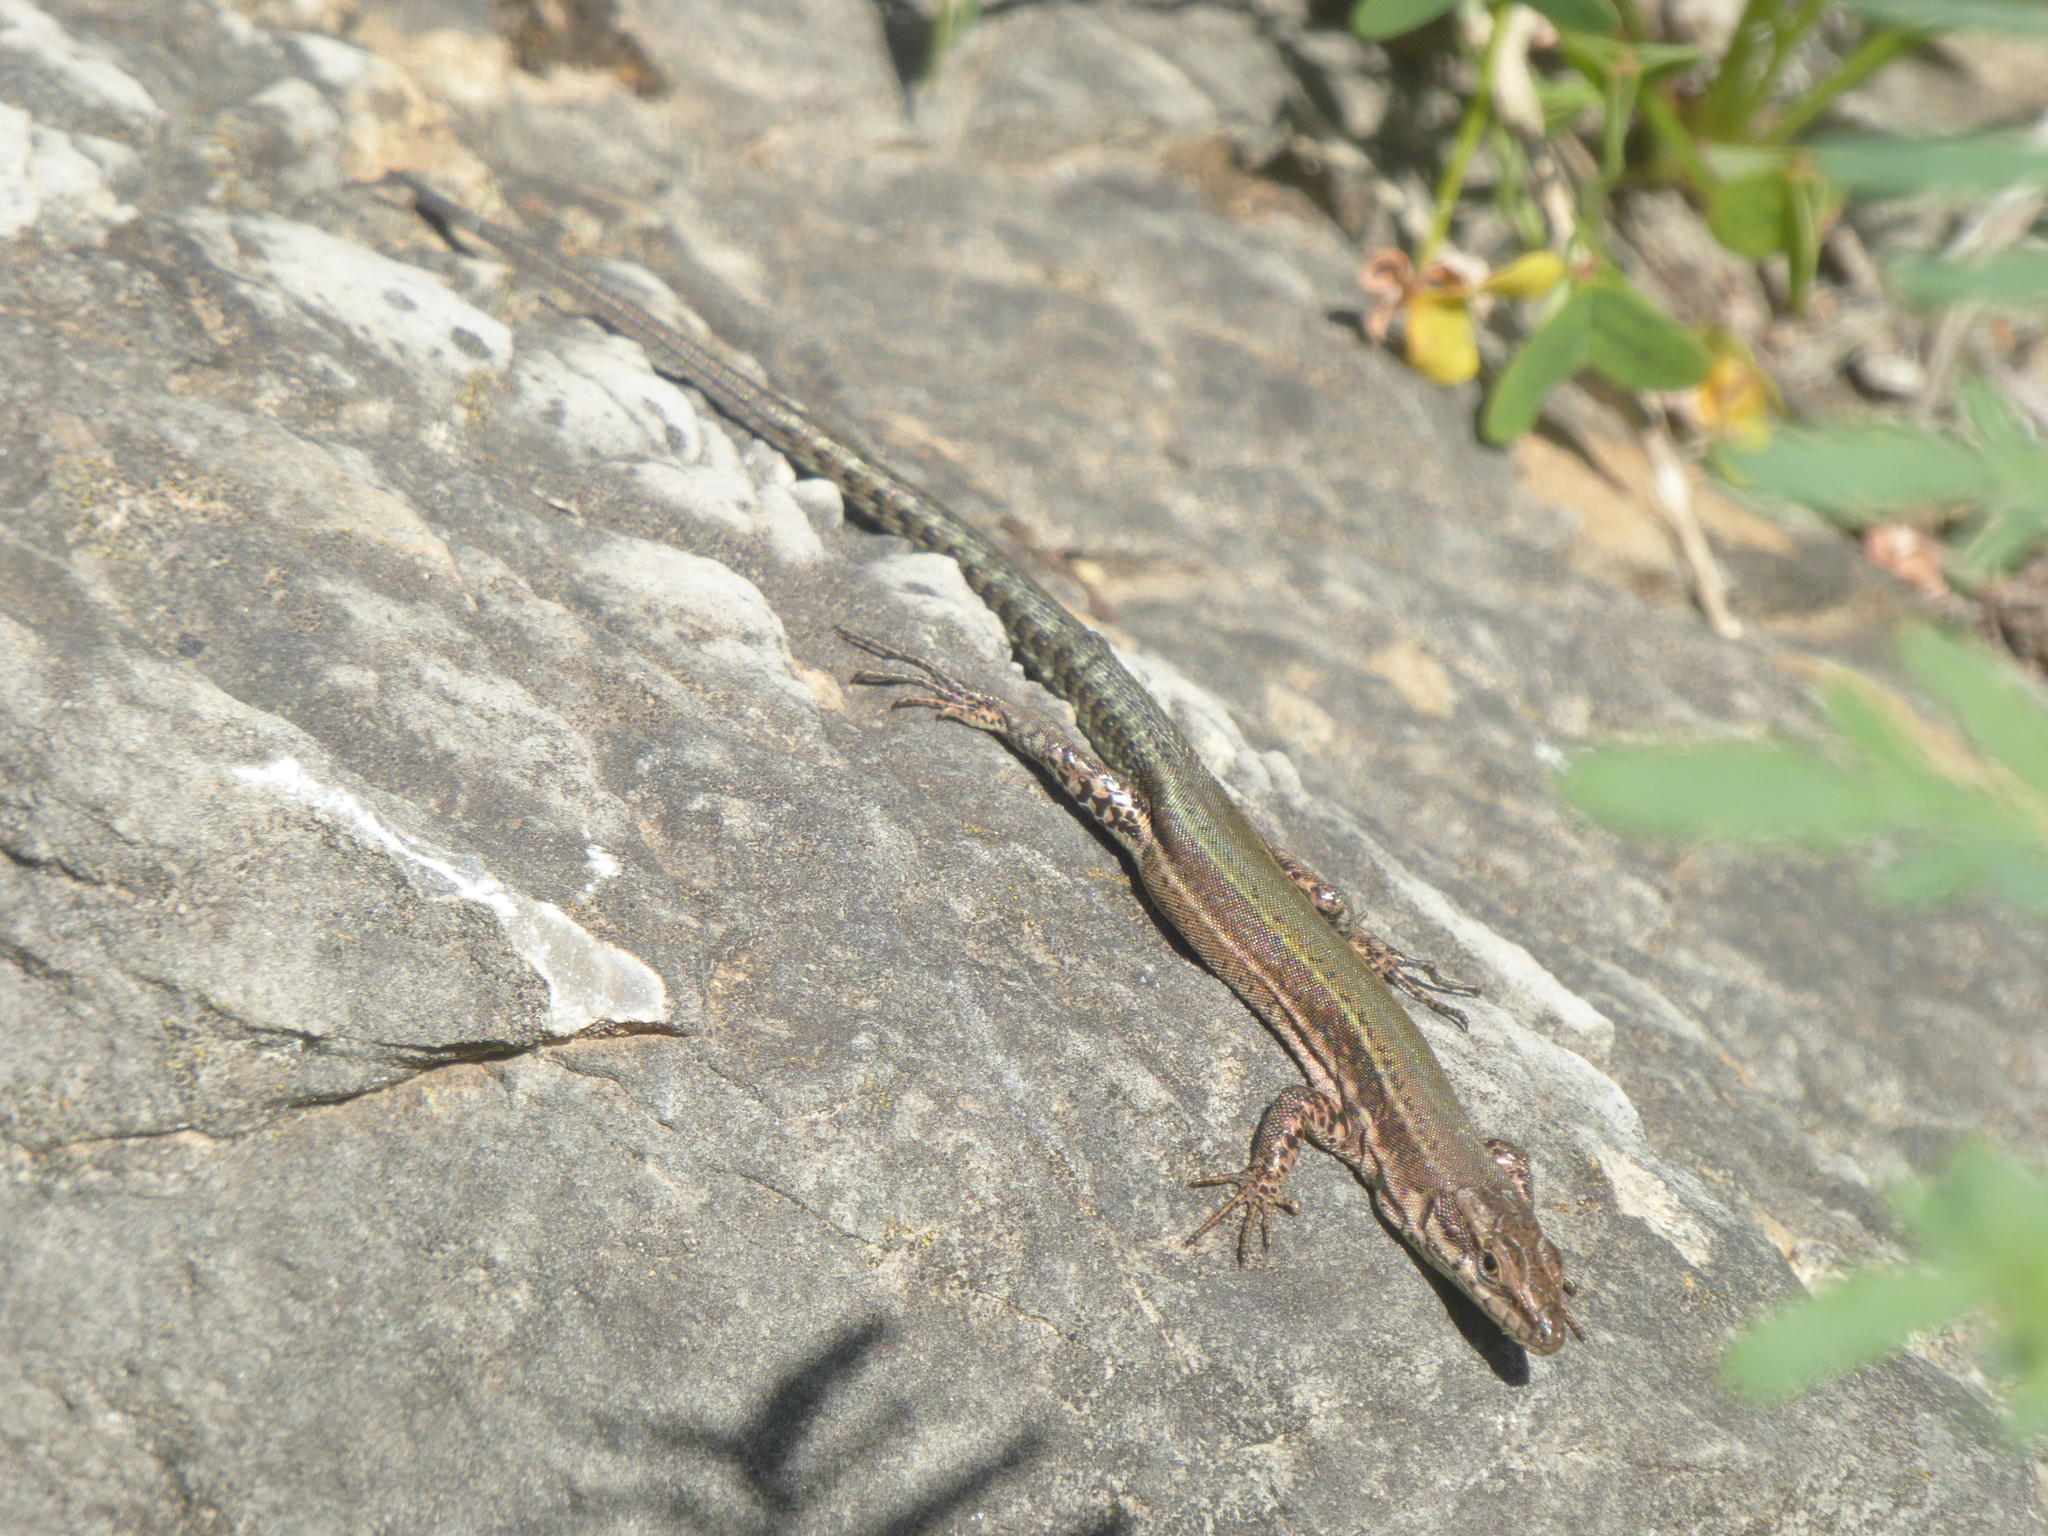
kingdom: Animalia
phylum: Chordata
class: Squamata
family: Lacertidae
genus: Podarcis
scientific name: Podarcis vaucheri
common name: Vaucher's wall lizard
